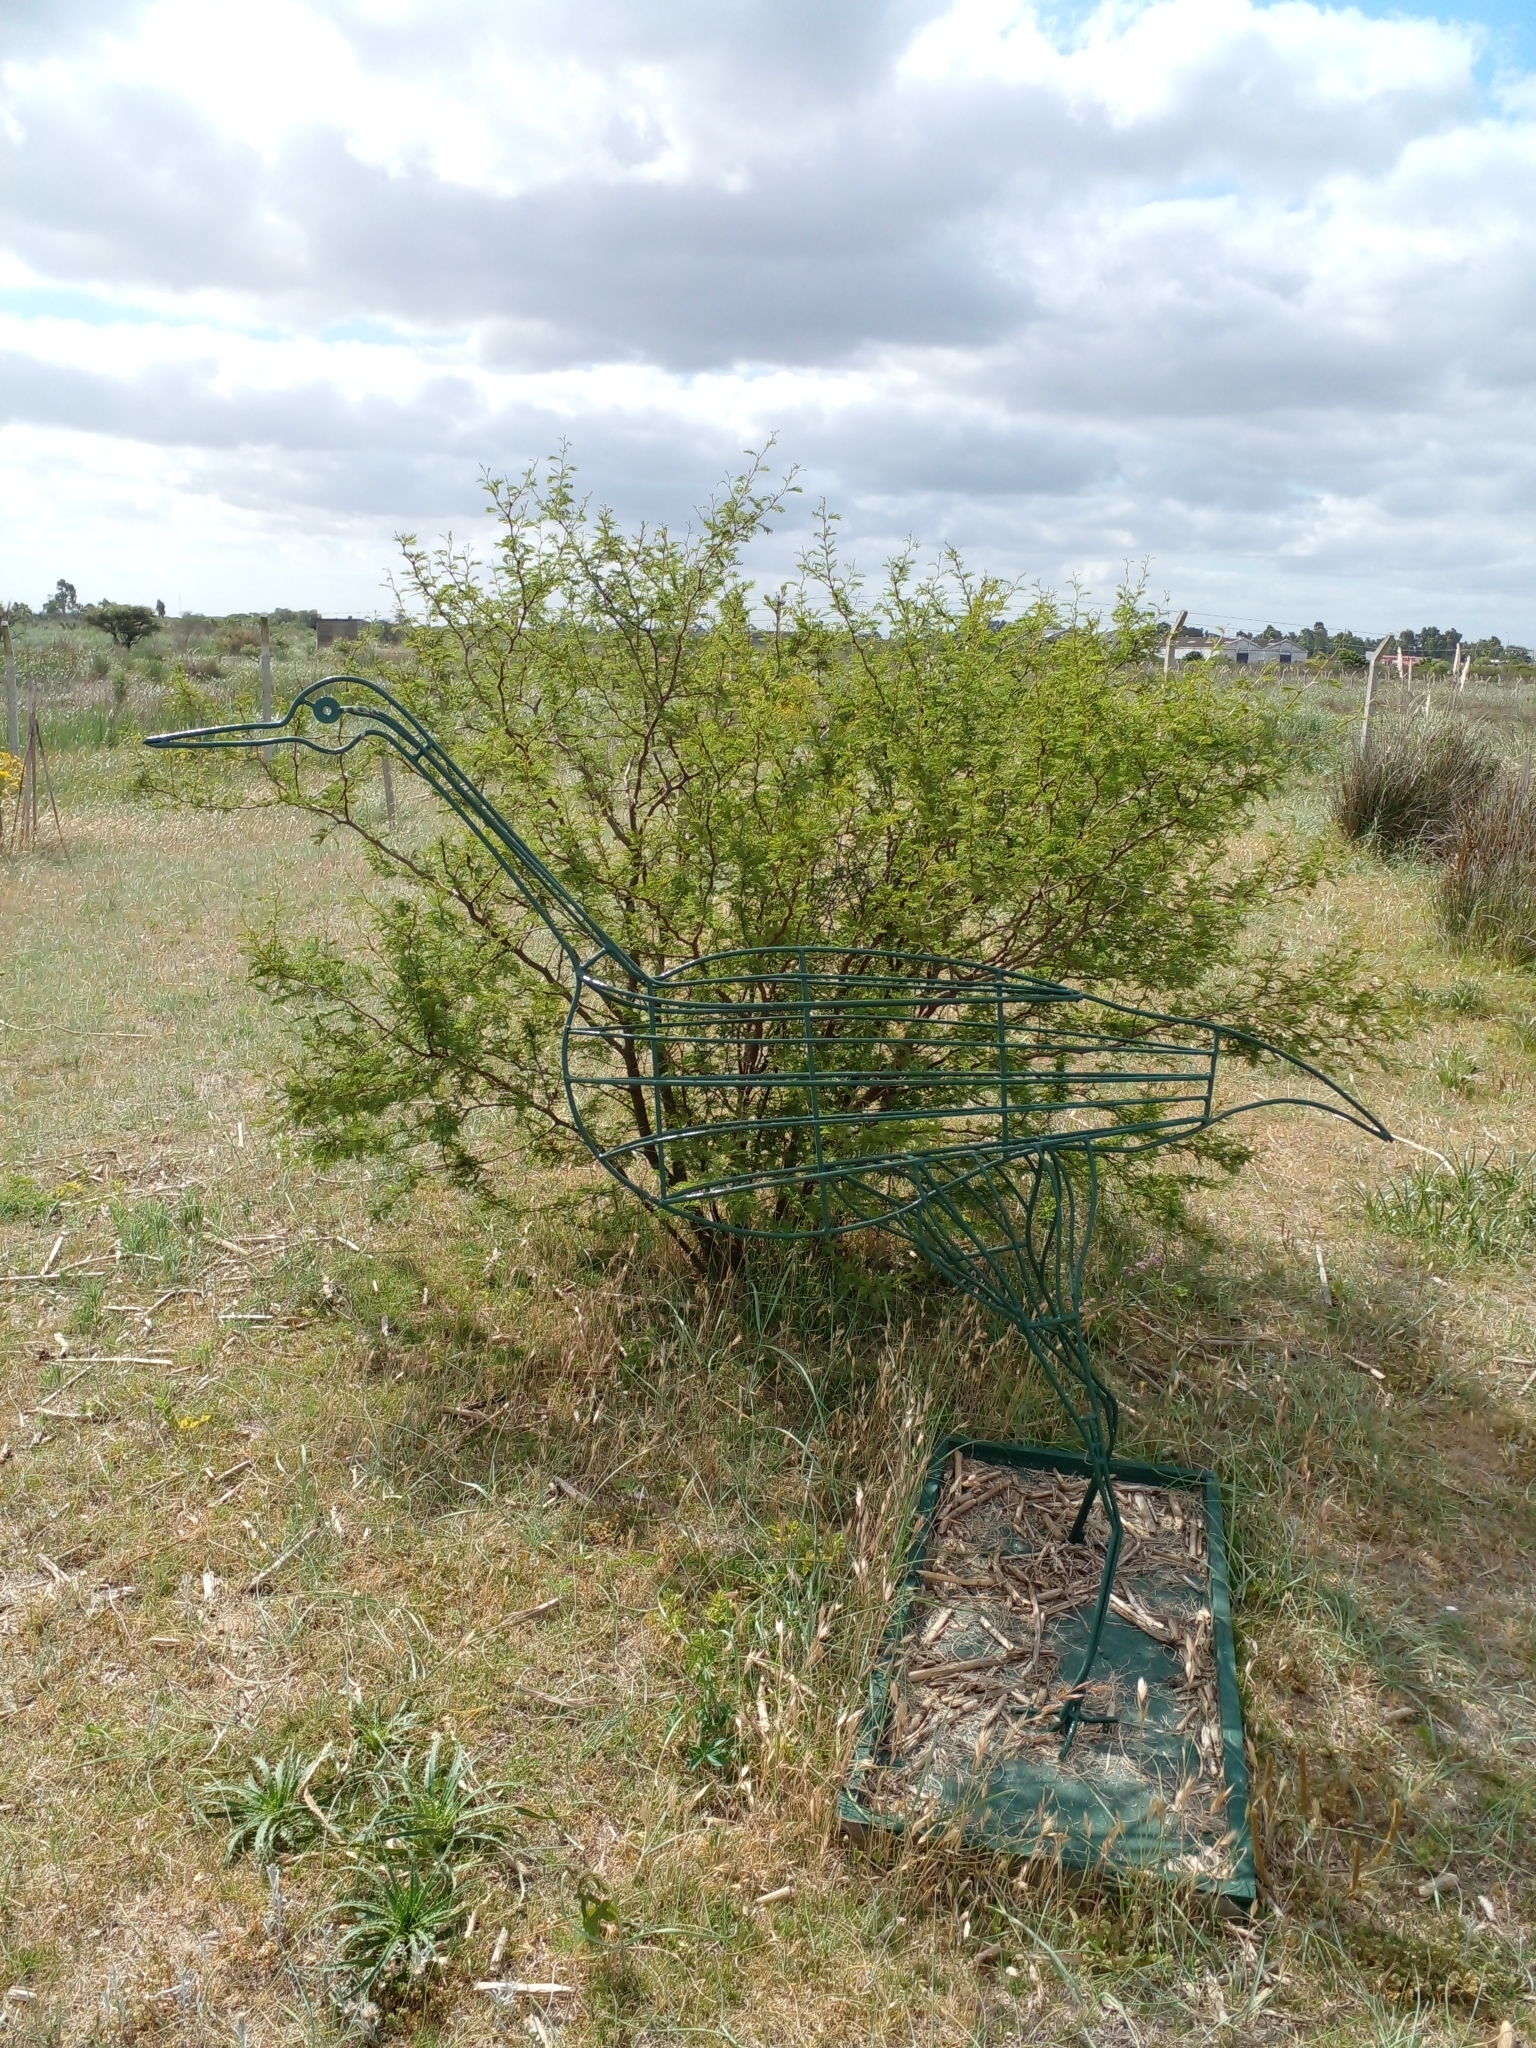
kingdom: Plantae
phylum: Tracheophyta
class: Magnoliopsida
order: Fabales
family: Fabaceae
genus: Vachellia
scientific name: Vachellia caven
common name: Roman cassie
